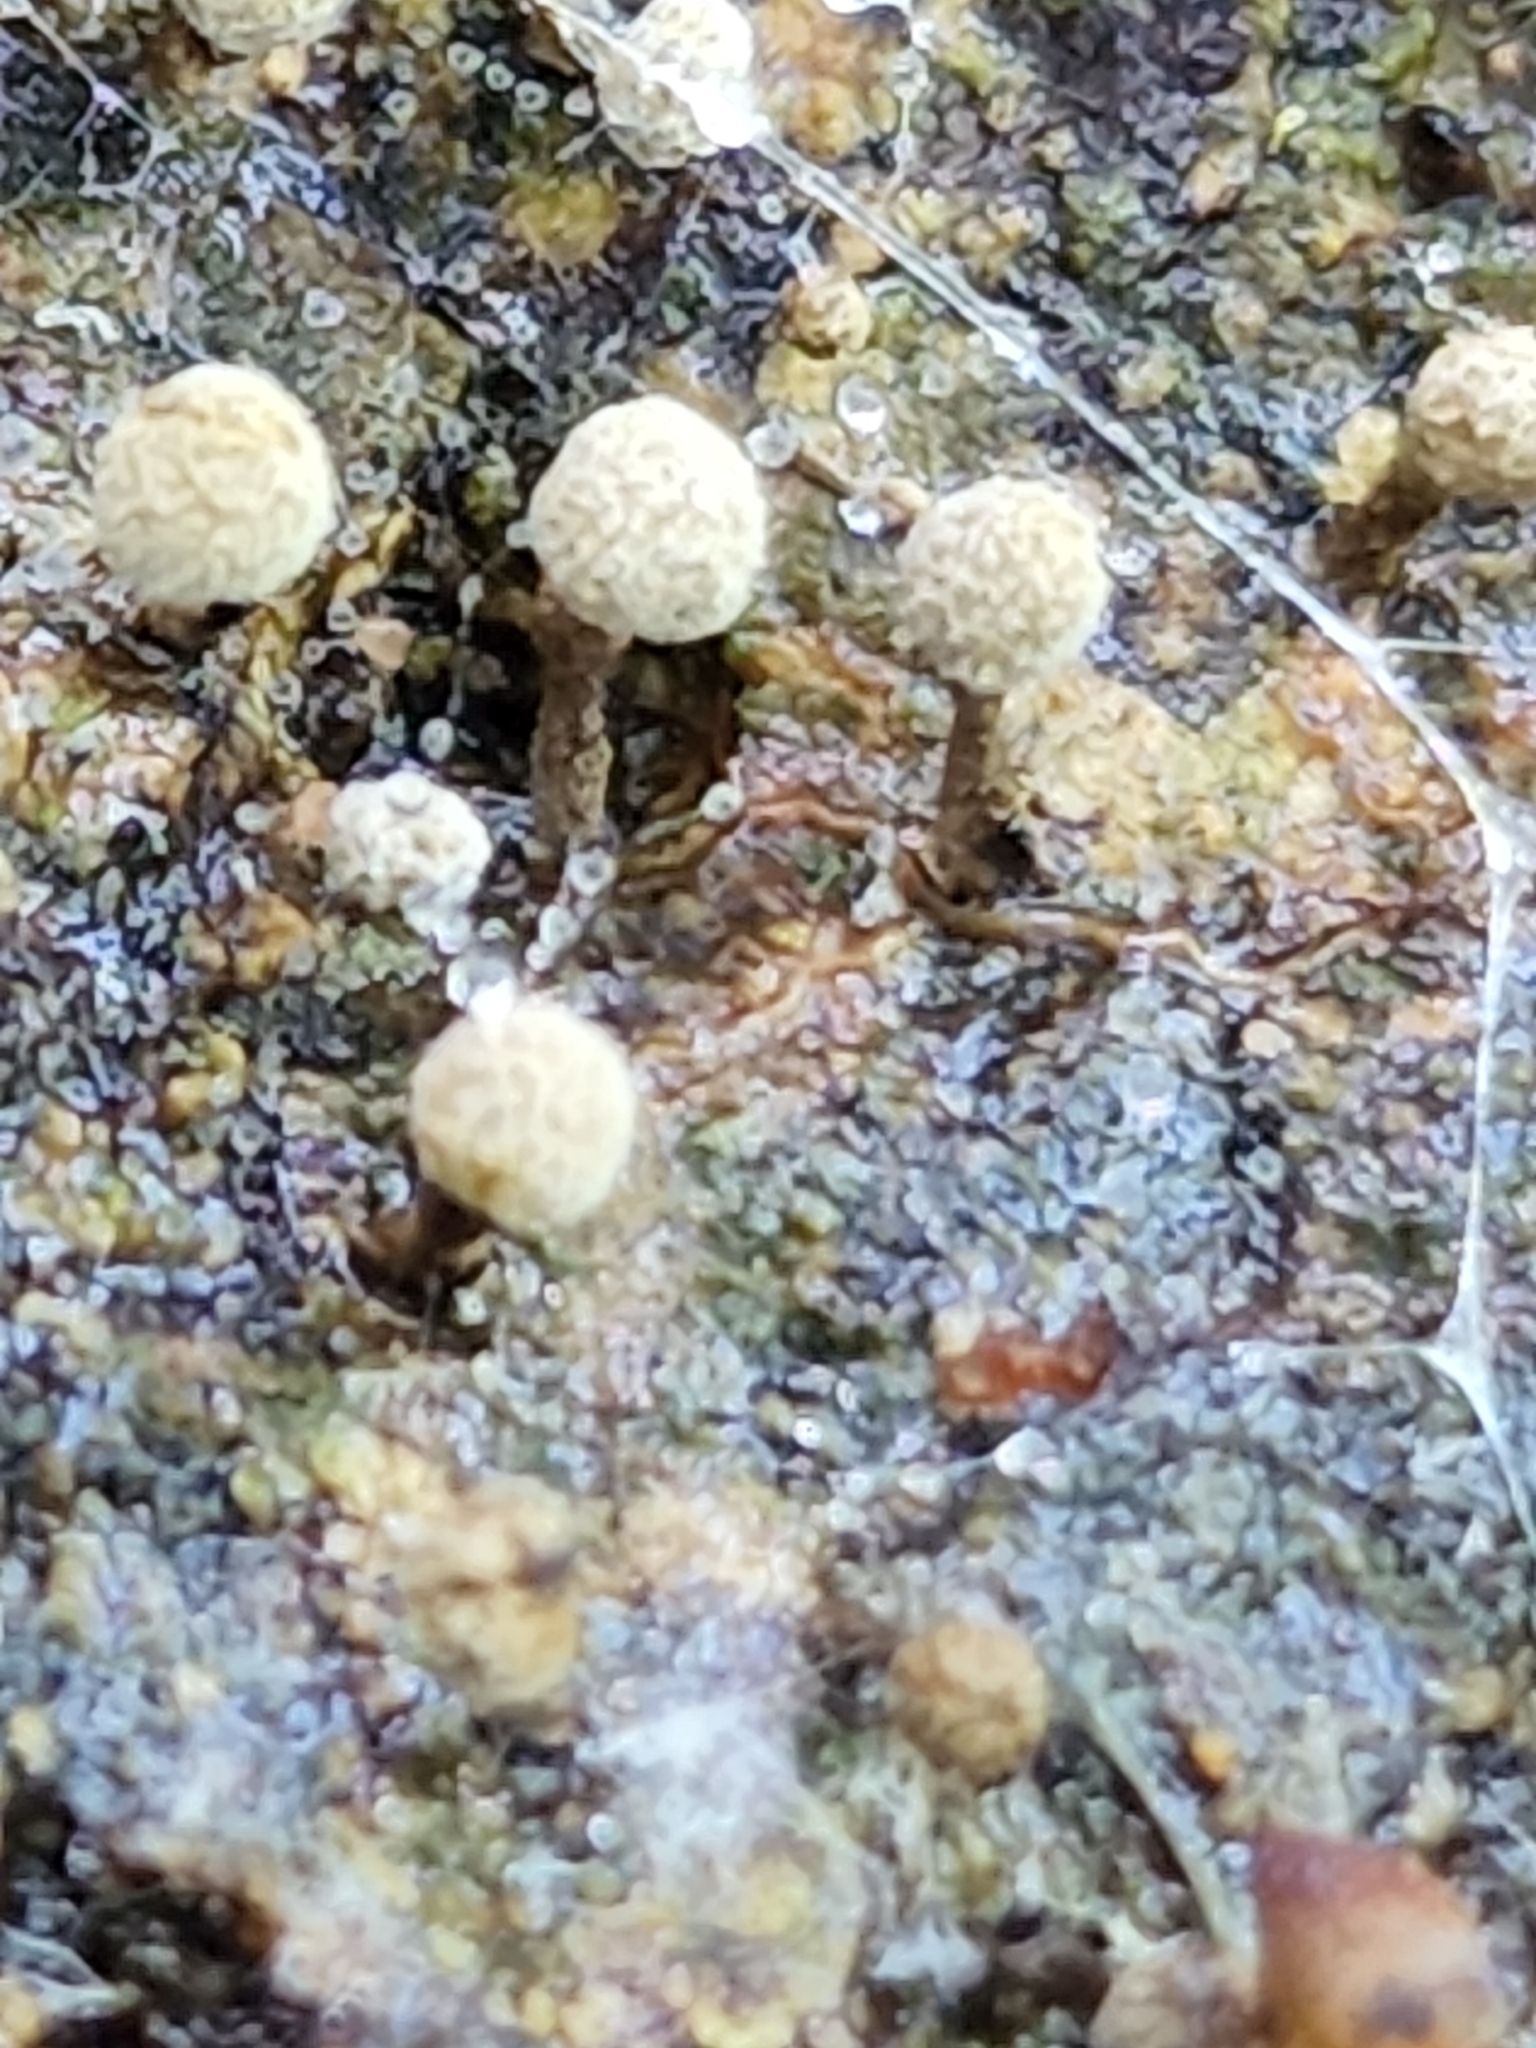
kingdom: Fungi
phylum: Basidiomycota
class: Atractiellomycetes
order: Atractiellales
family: Phleogenaceae
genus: Phleogena
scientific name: Phleogena faginea
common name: Fenugreek stalkball
